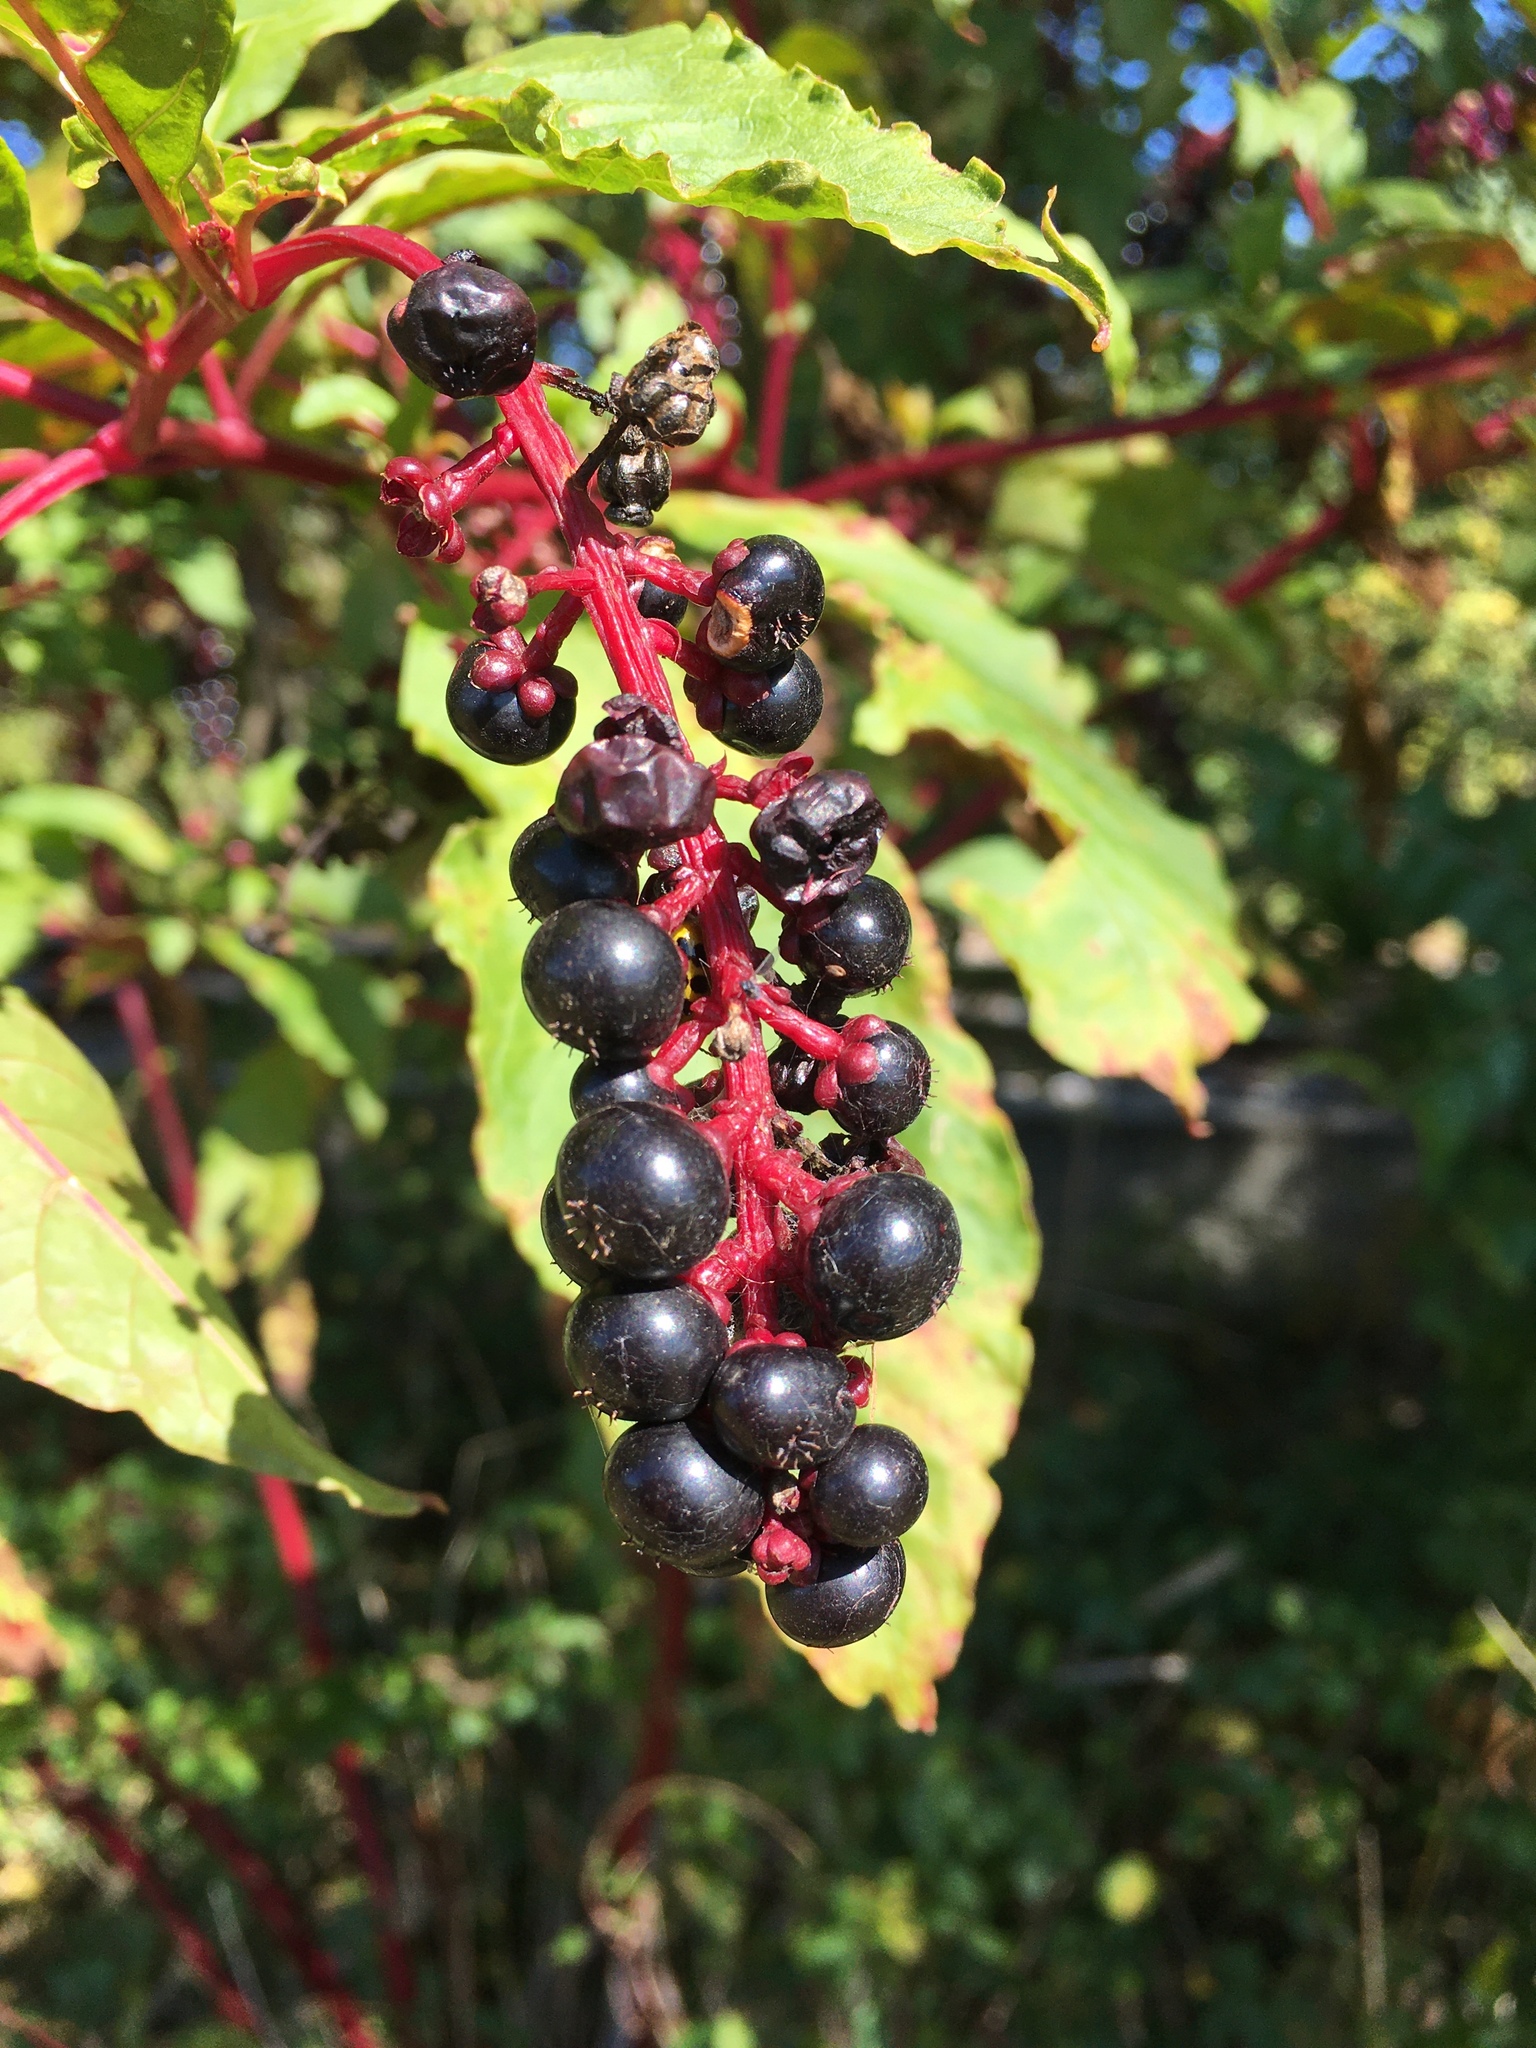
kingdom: Plantae
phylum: Tracheophyta
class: Magnoliopsida
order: Caryophyllales
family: Phytolaccaceae
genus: Phytolacca
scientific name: Phytolacca americana
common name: American pokeweed
